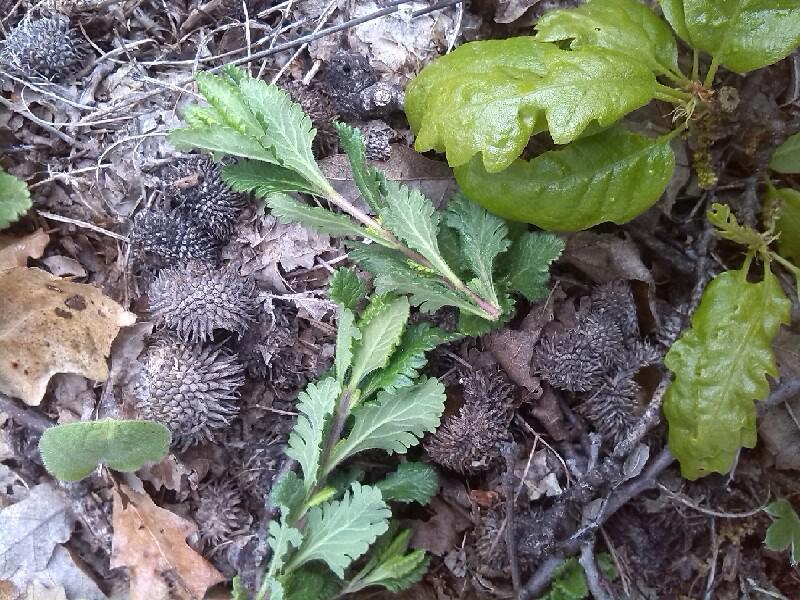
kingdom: Plantae
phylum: Tracheophyta
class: Magnoliopsida
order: Fagales
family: Fagaceae
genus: Quercus
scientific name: Quercus cerris
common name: Turkey oak
